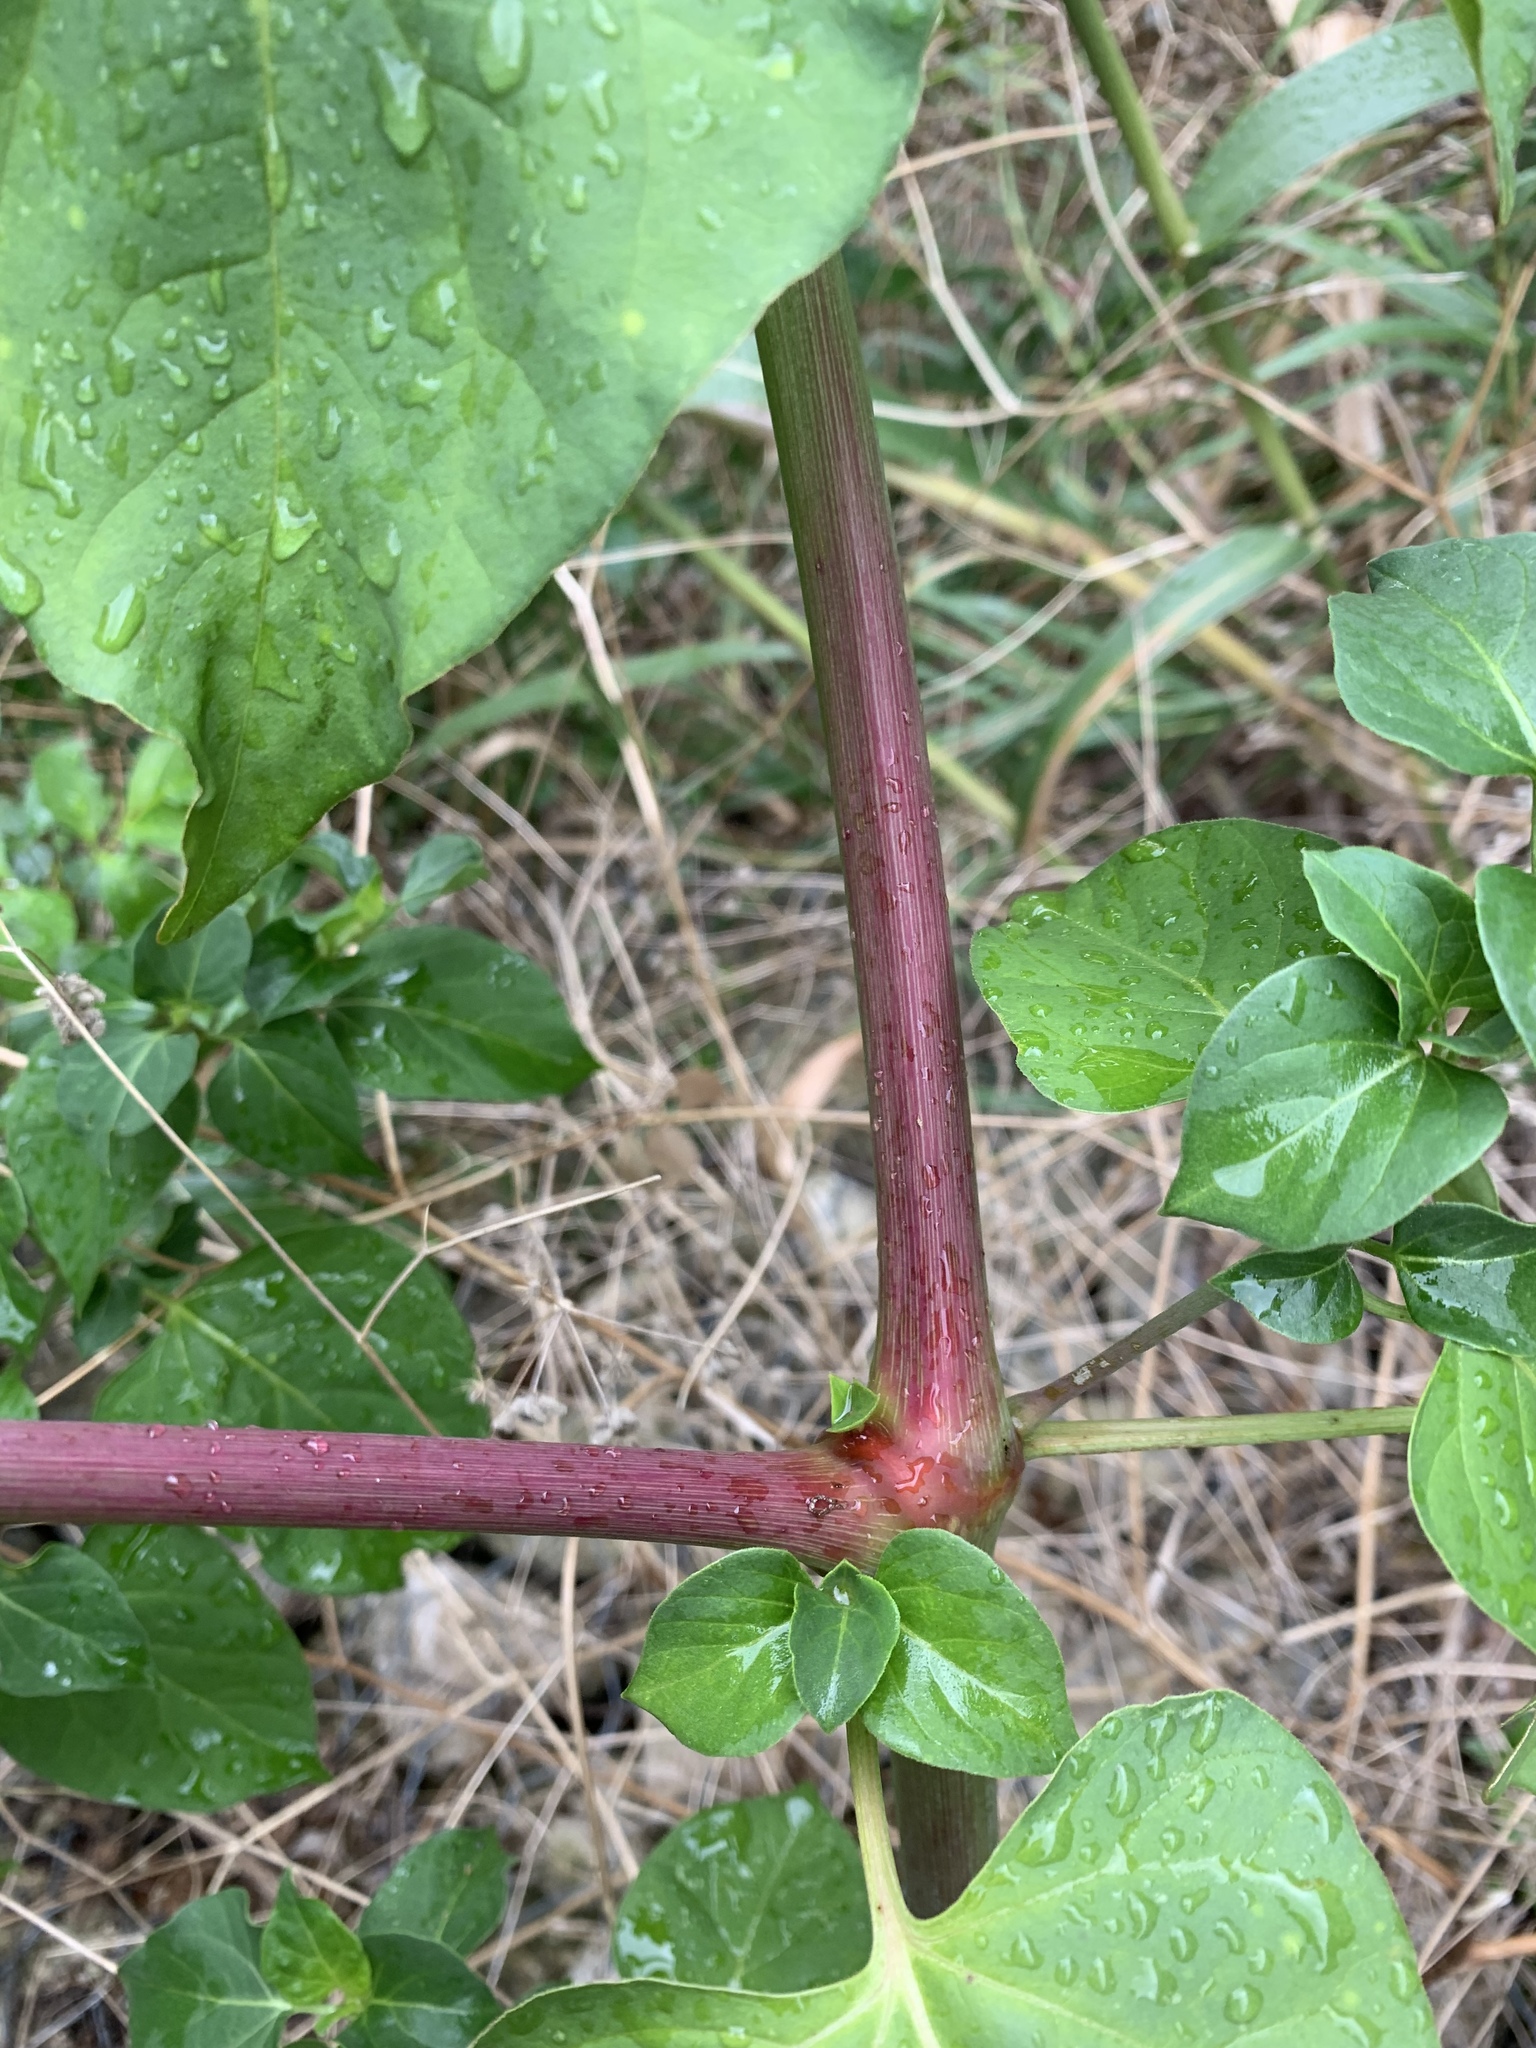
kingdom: Plantae
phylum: Tracheophyta
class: Magnoliopsida
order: Caryophyllales
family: Nyctaginaceae
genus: Mirabilis
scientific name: Mirabilis jalapa
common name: Marvel-of-peru
